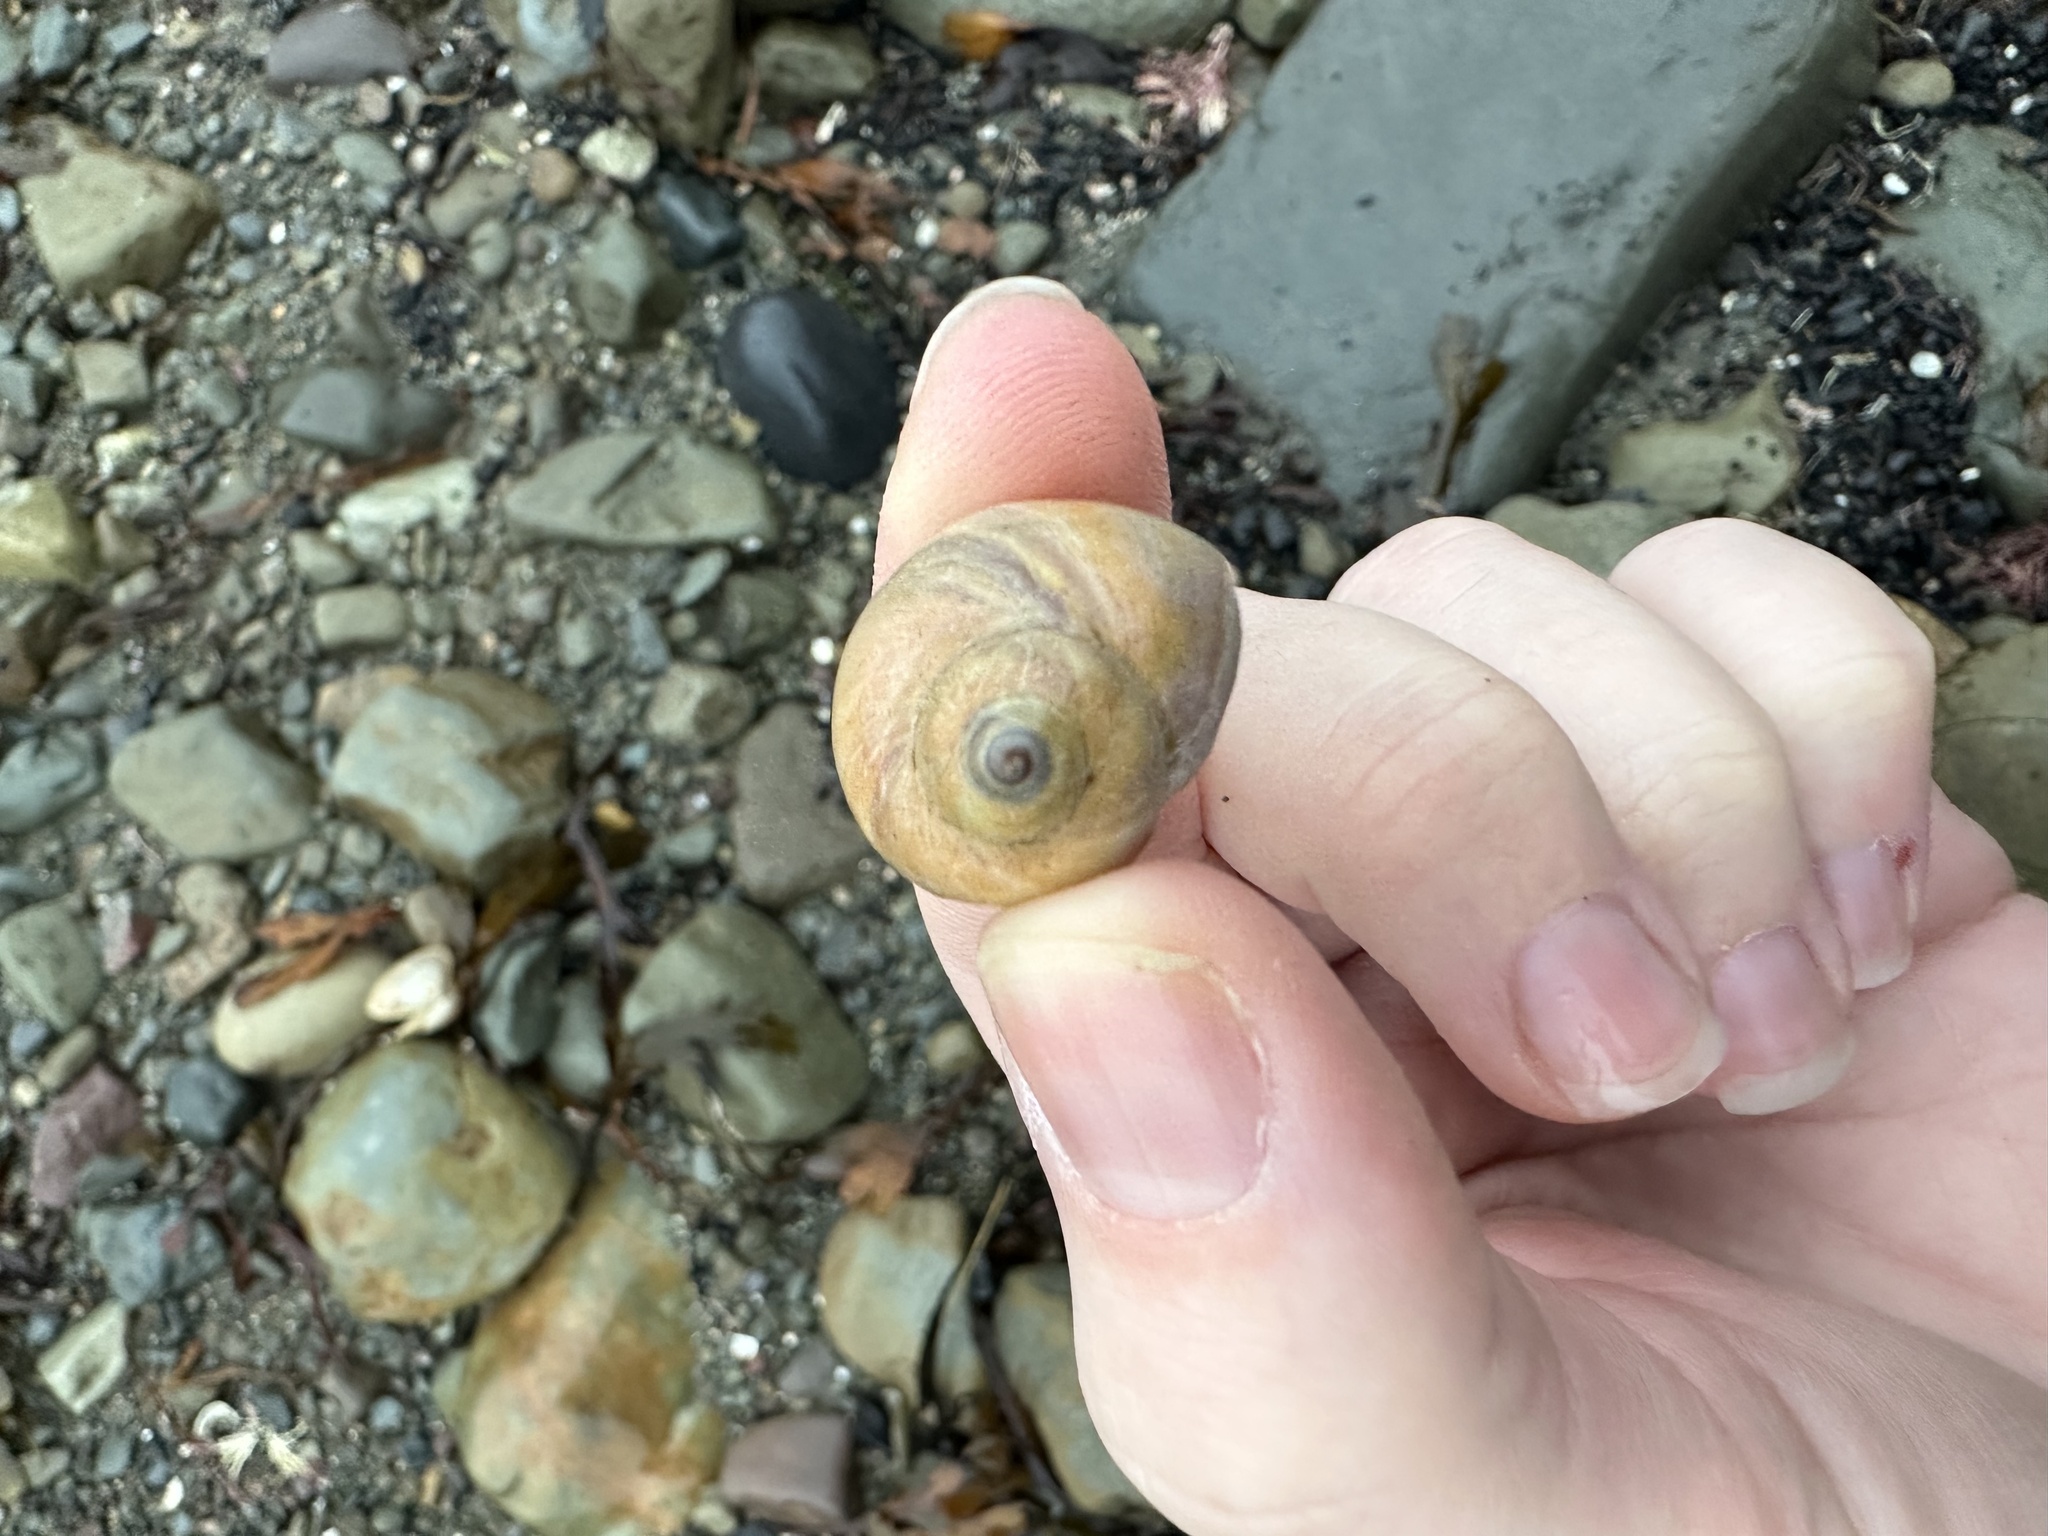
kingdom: Animalia
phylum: Mollusca
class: Gastropoda
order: Littorinimorpha
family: Naticidae
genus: Euspira
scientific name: Euspira heros
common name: Common northern moonsnail
